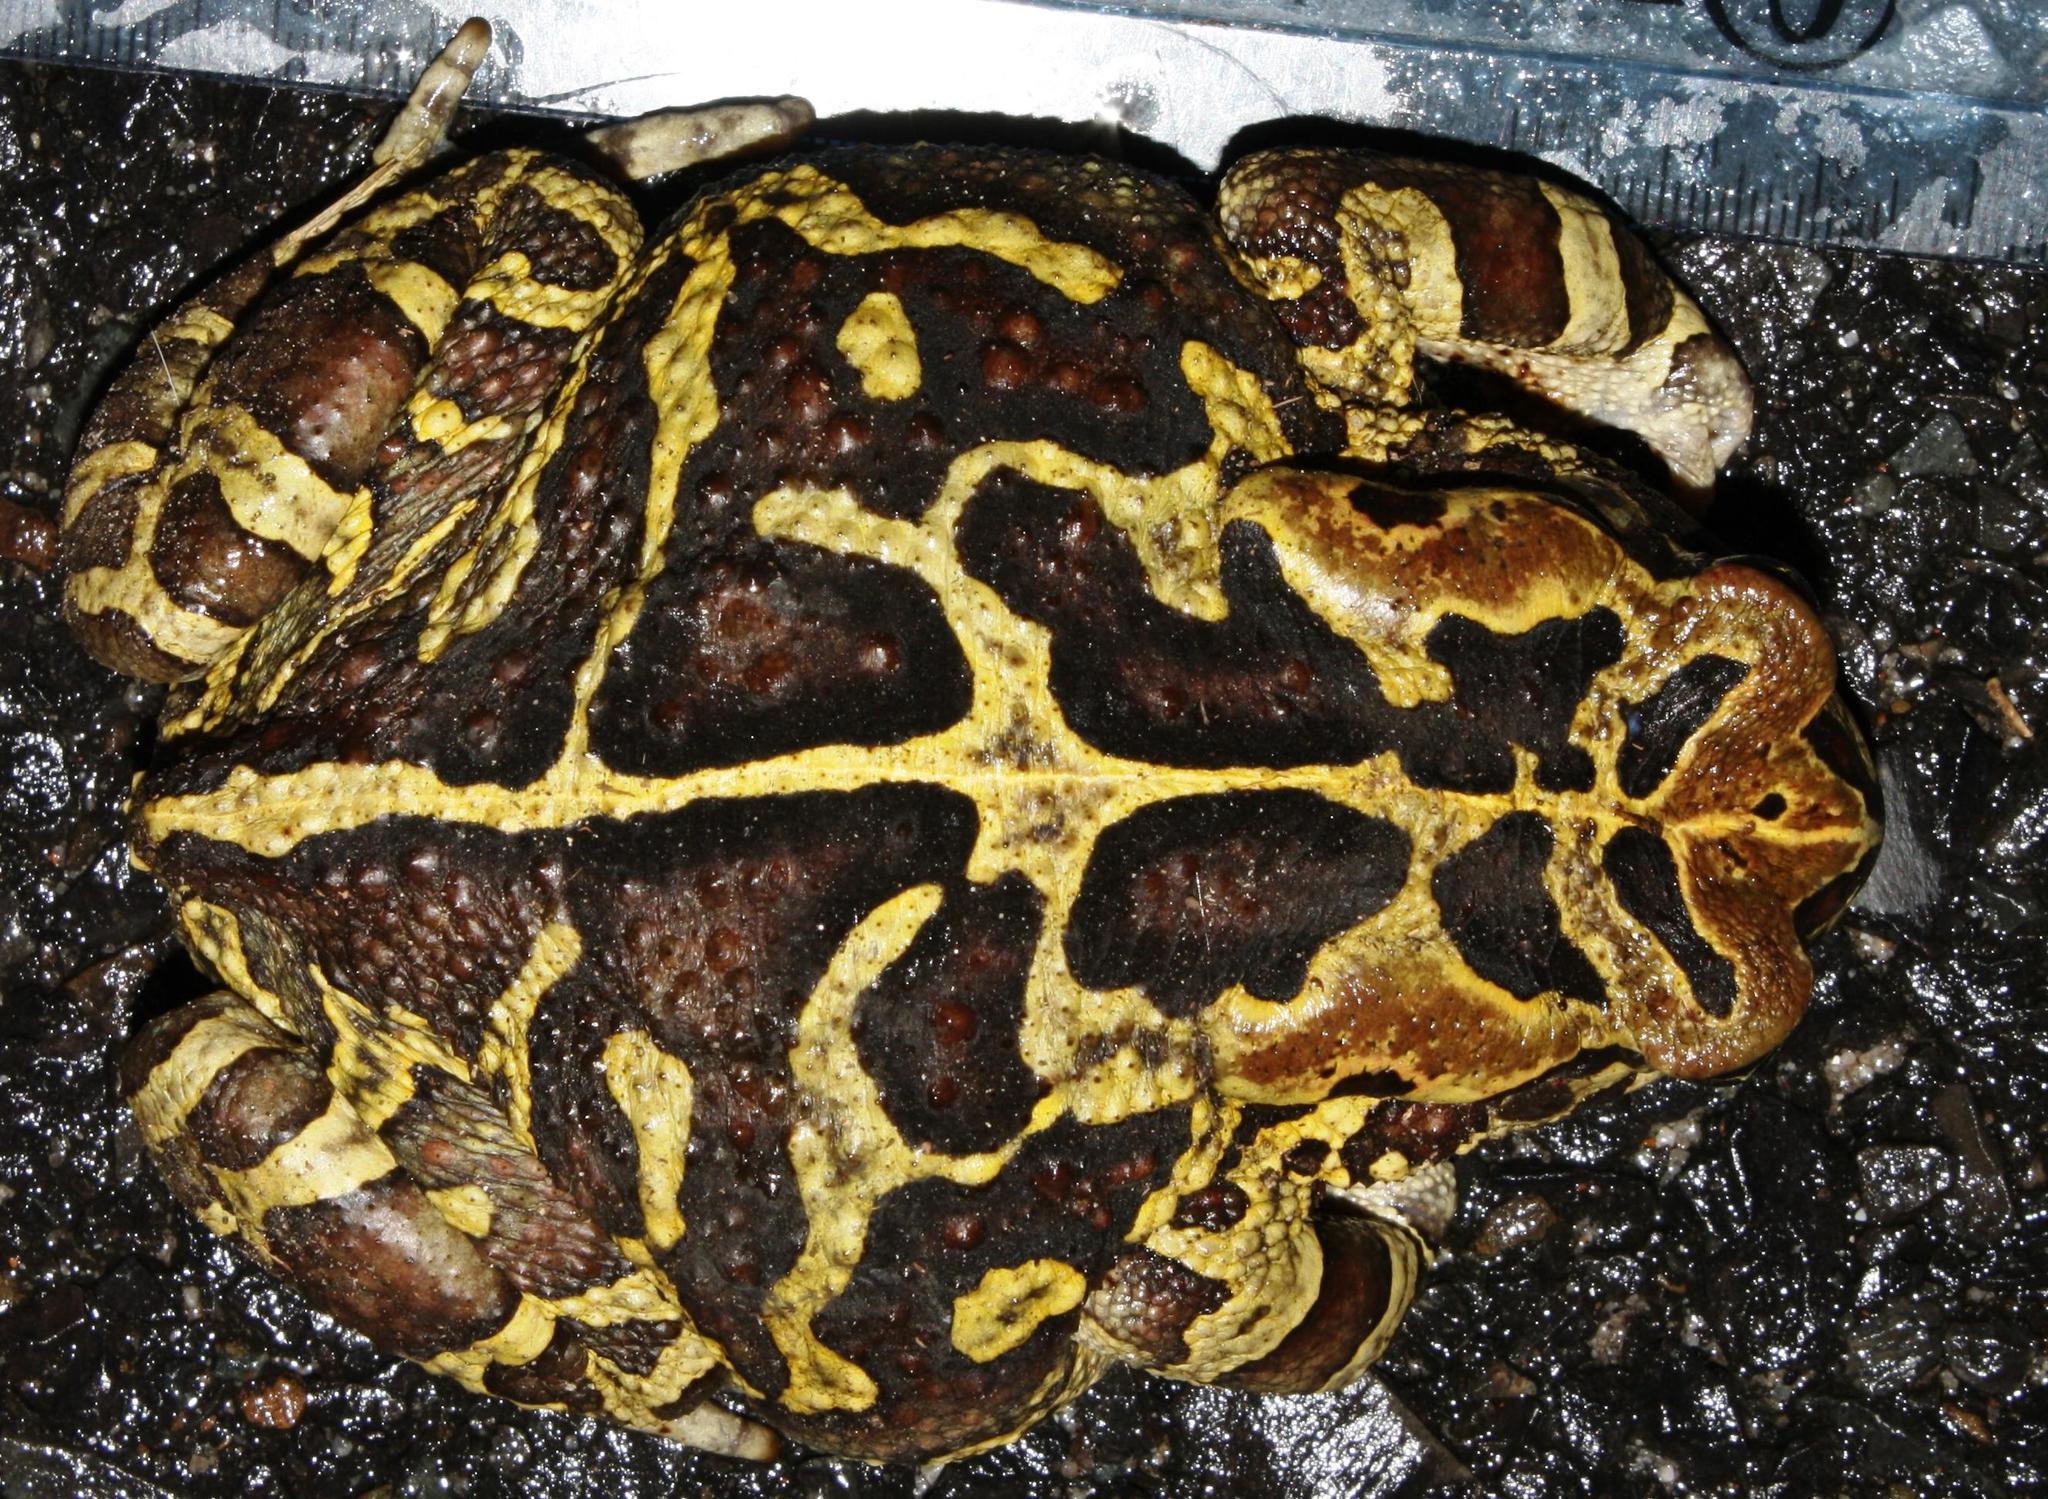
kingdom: Animalia
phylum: Chordata
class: Amphibia
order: Anura
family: Bufonidae
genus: Sclerophrys
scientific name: Sclerophrys pantherina
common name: Panther toad
